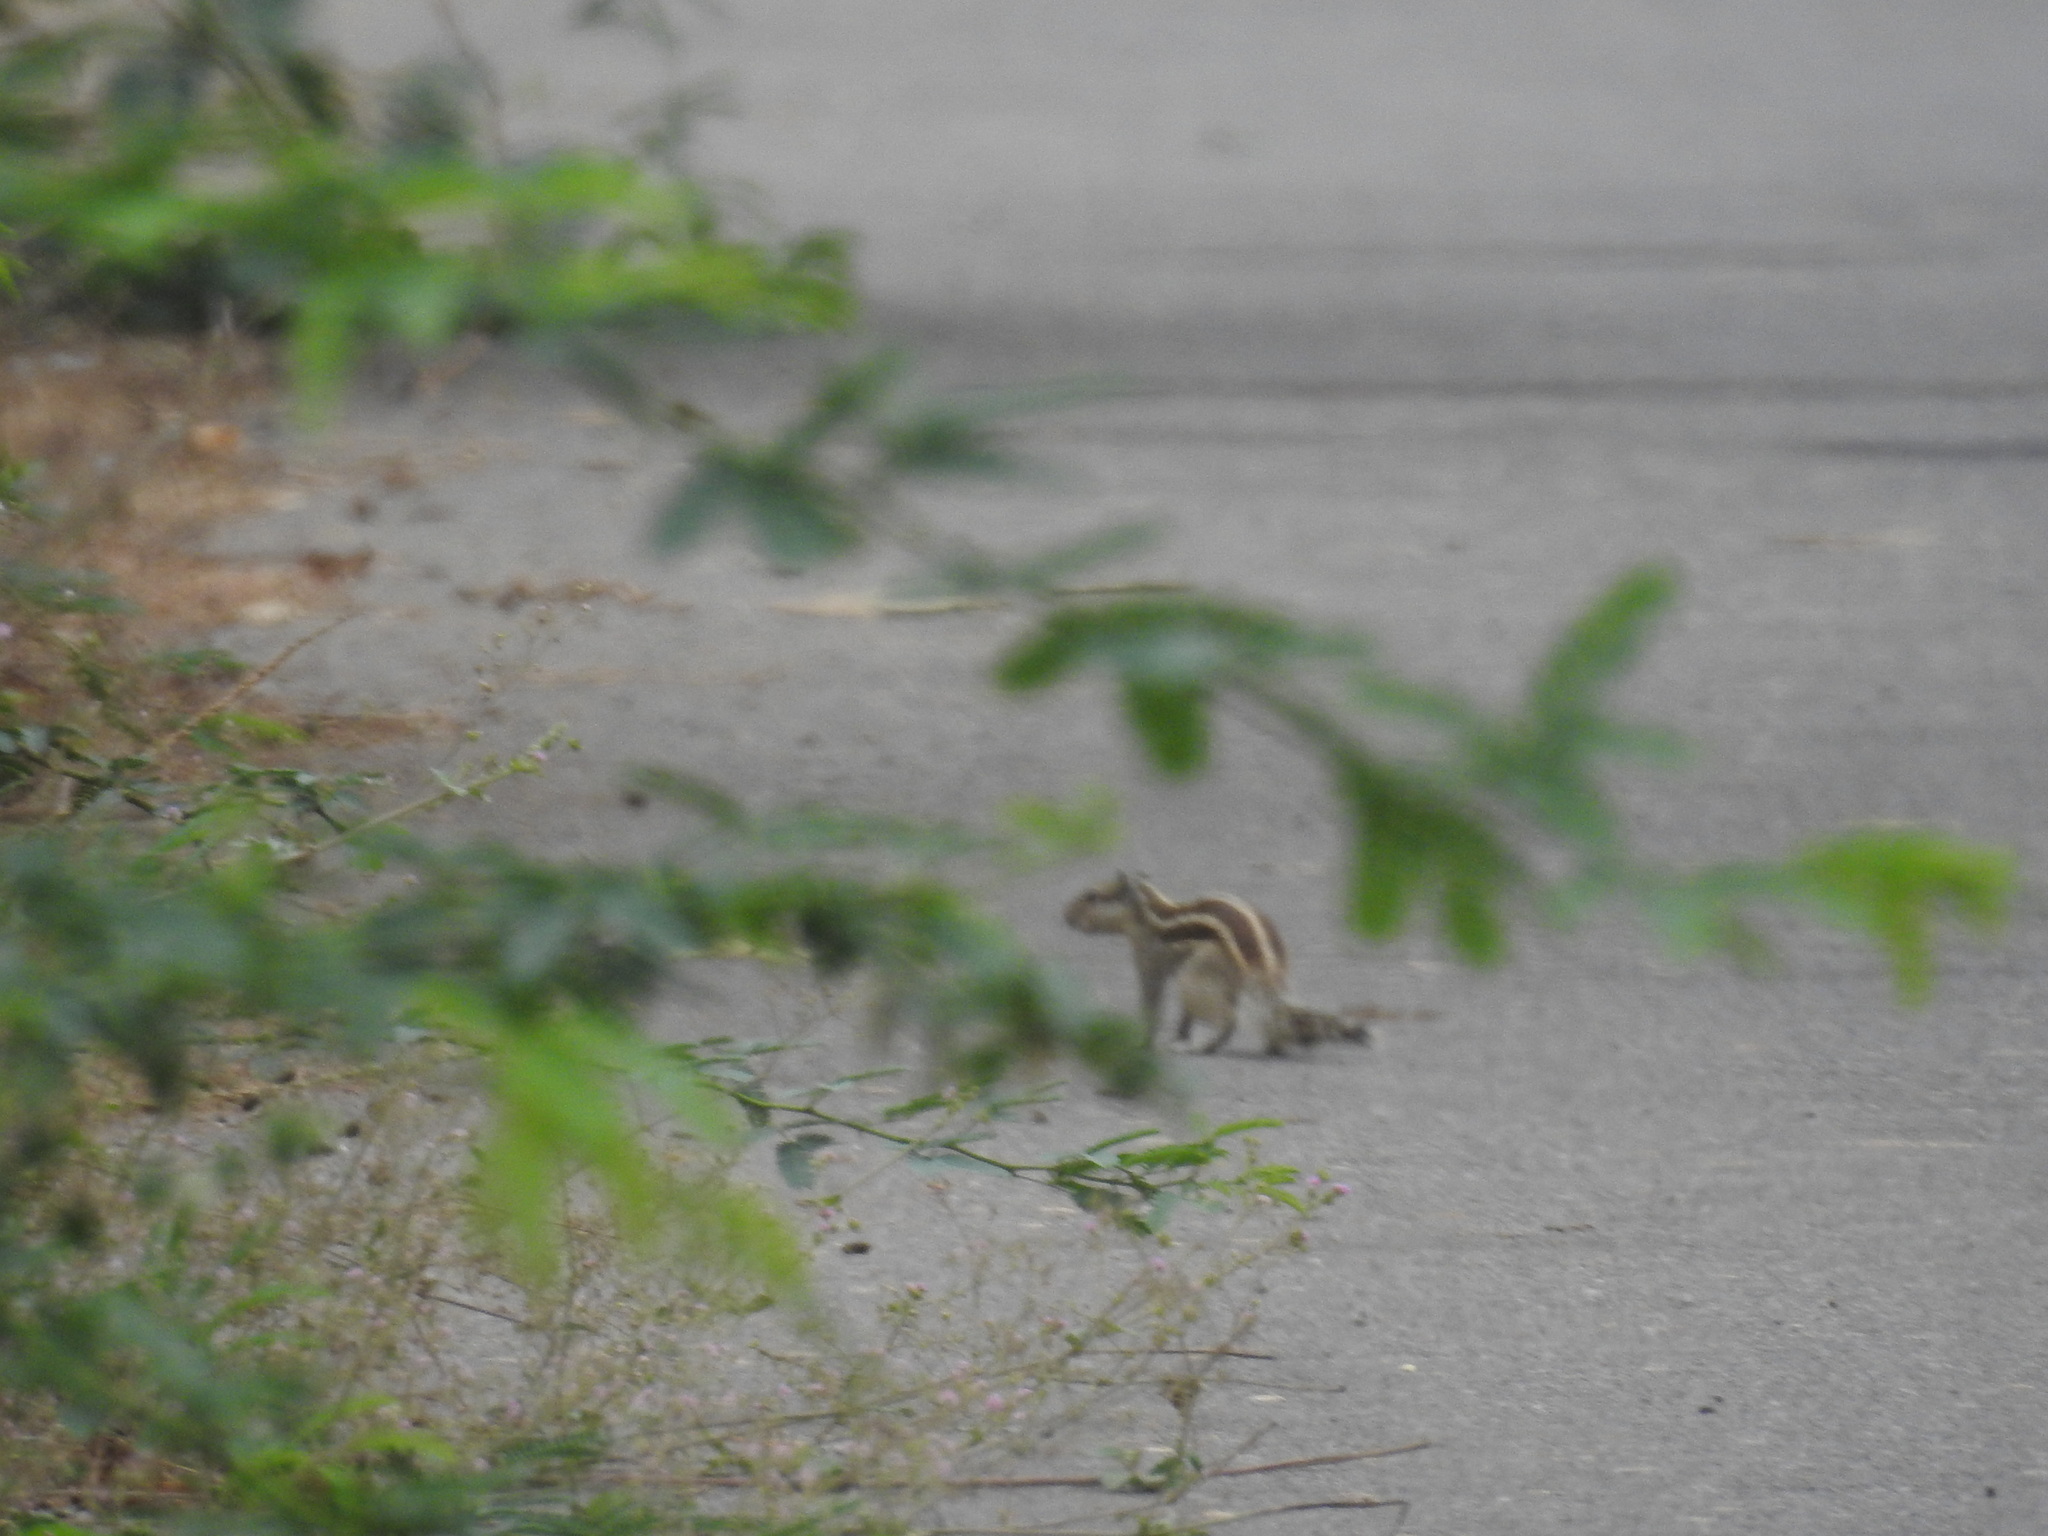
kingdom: Animalia
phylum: Chordata
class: Mammalia
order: Rodentia
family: Sciuridae
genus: Funambulus
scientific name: Funambulus pennantii
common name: Northern palm squirrel
